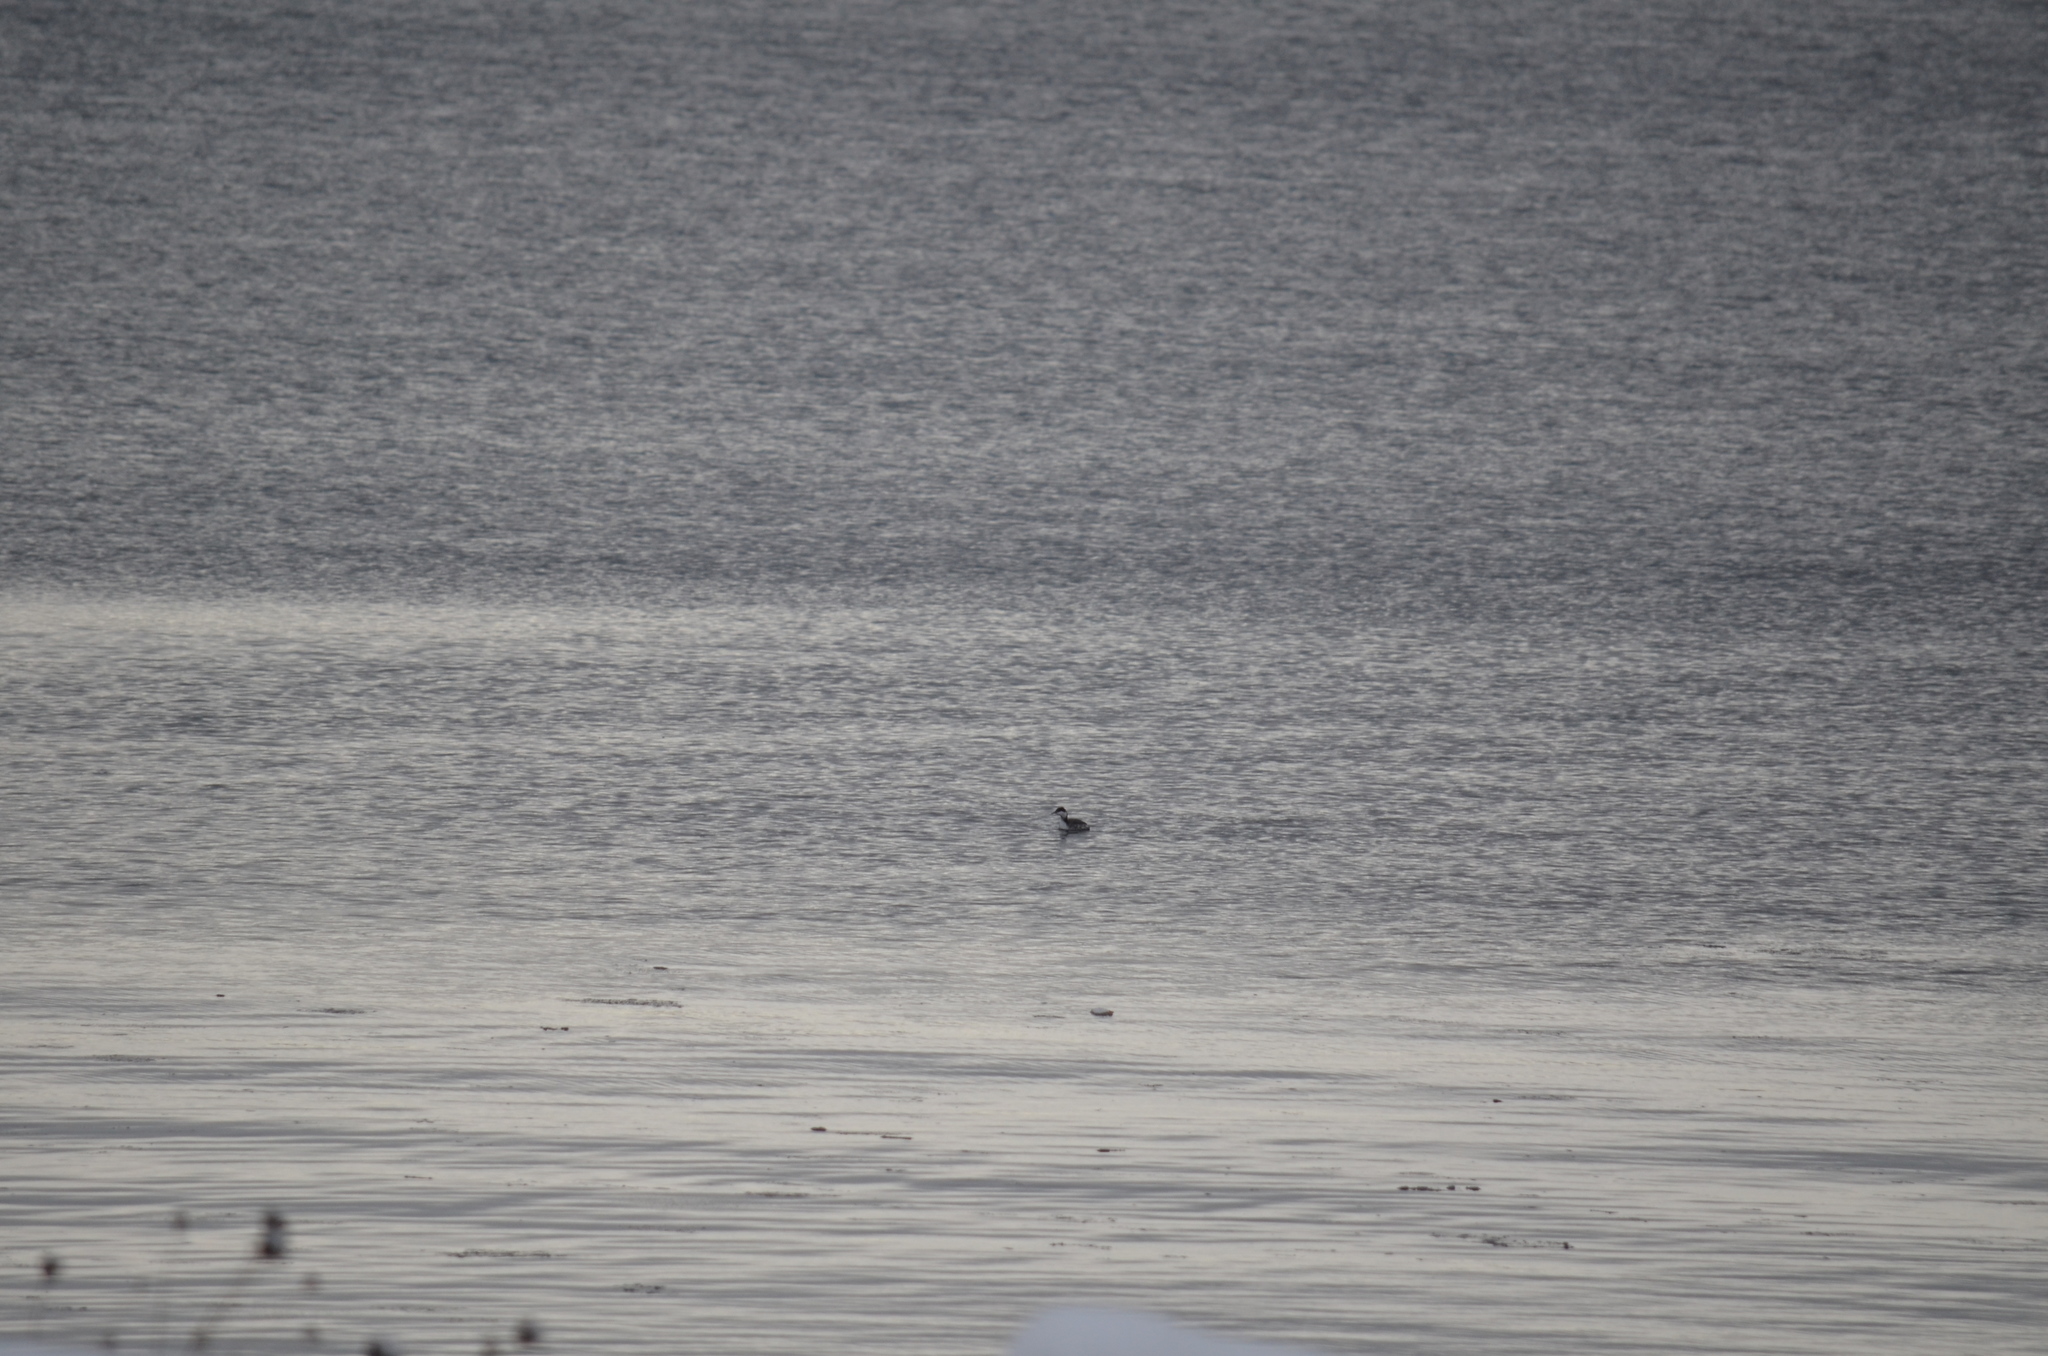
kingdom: Animalia
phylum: Chordata
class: Aves
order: Podicipediformes
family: Podicipedidae
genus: Podiceps
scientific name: Podiceps auritus
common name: Horned grebe
